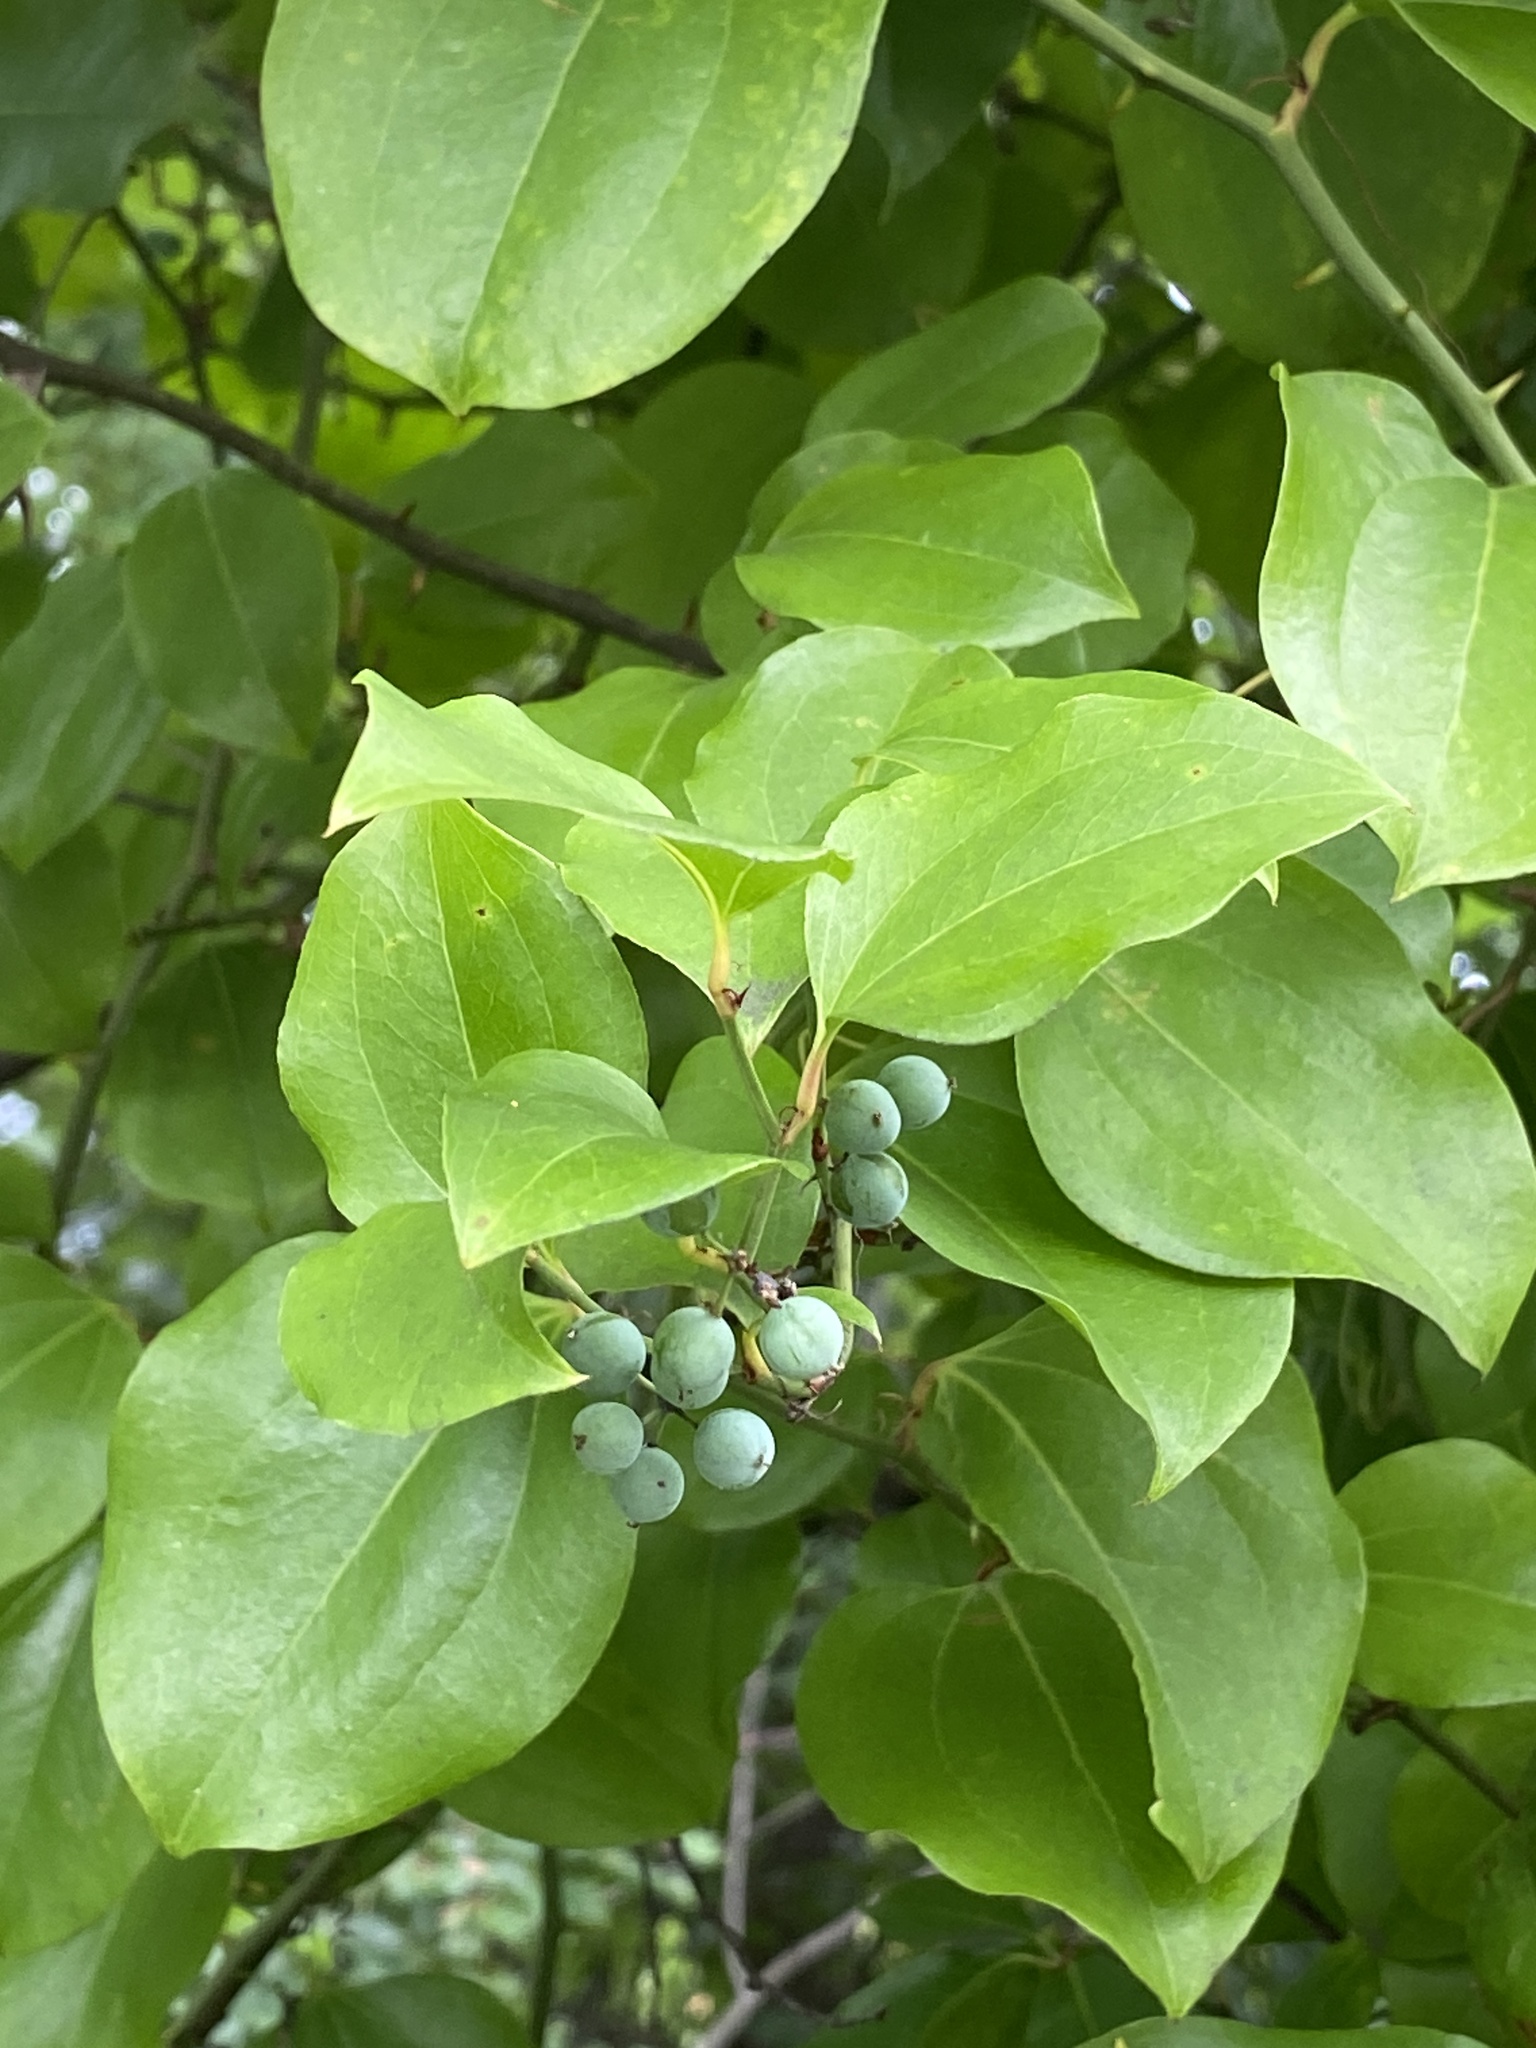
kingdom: Plantae
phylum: Tracheophyta
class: Liliopsida
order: Liliales
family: Smilacaceae
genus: Smilax
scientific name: Smilax rotundifolia
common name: Bullbriar
